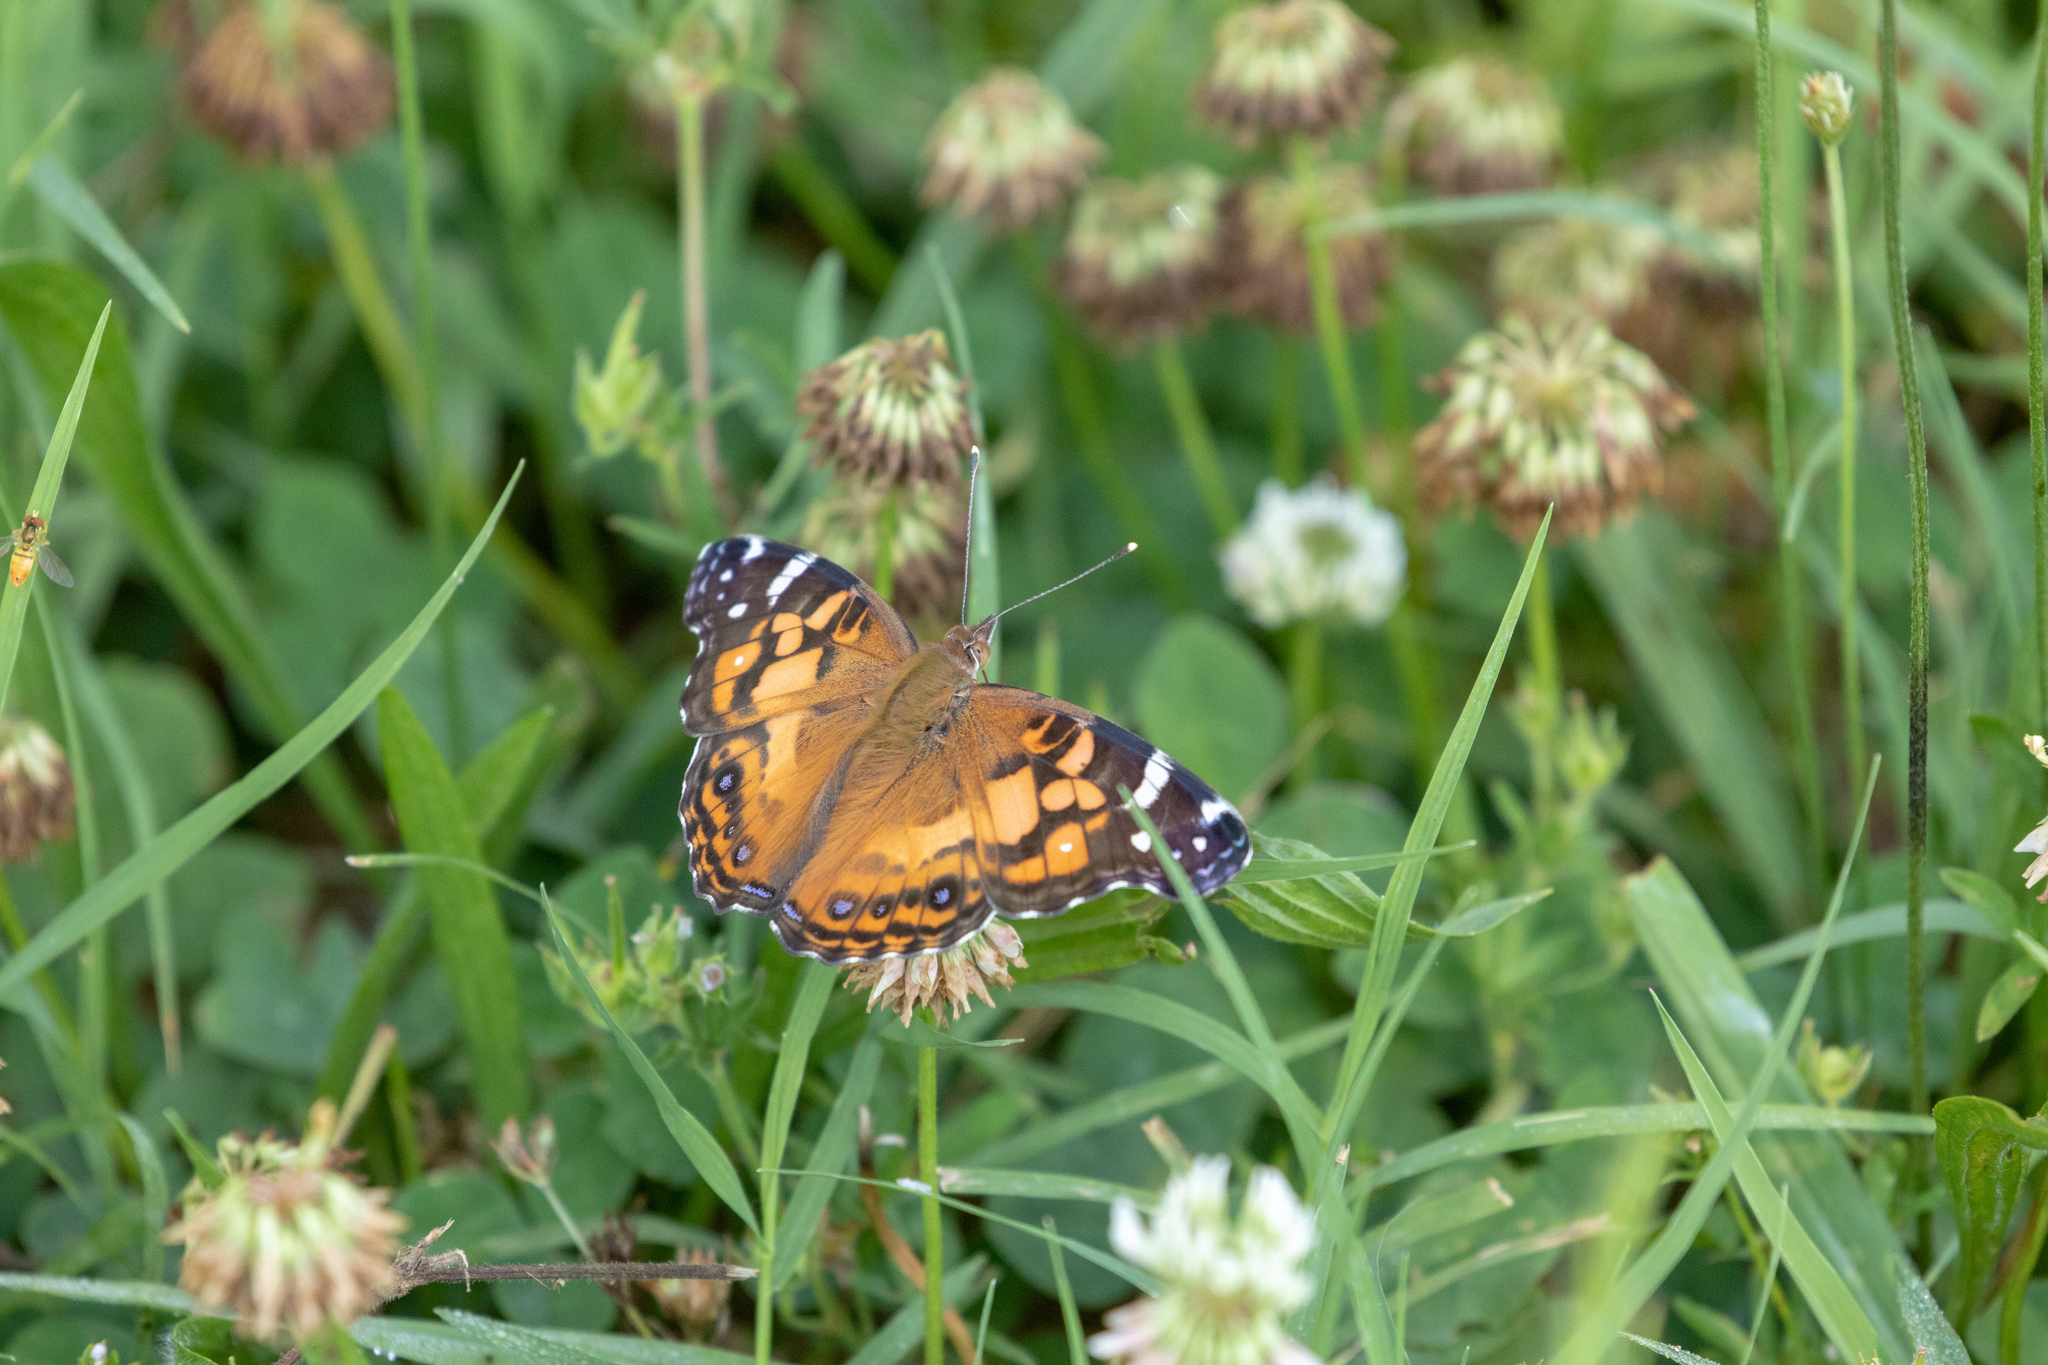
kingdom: Animalia
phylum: Arthropoda
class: Insecta
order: Lepidoptera
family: Nymphalidae
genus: Vanessa
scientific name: Vanessa virginiensis
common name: American lady
